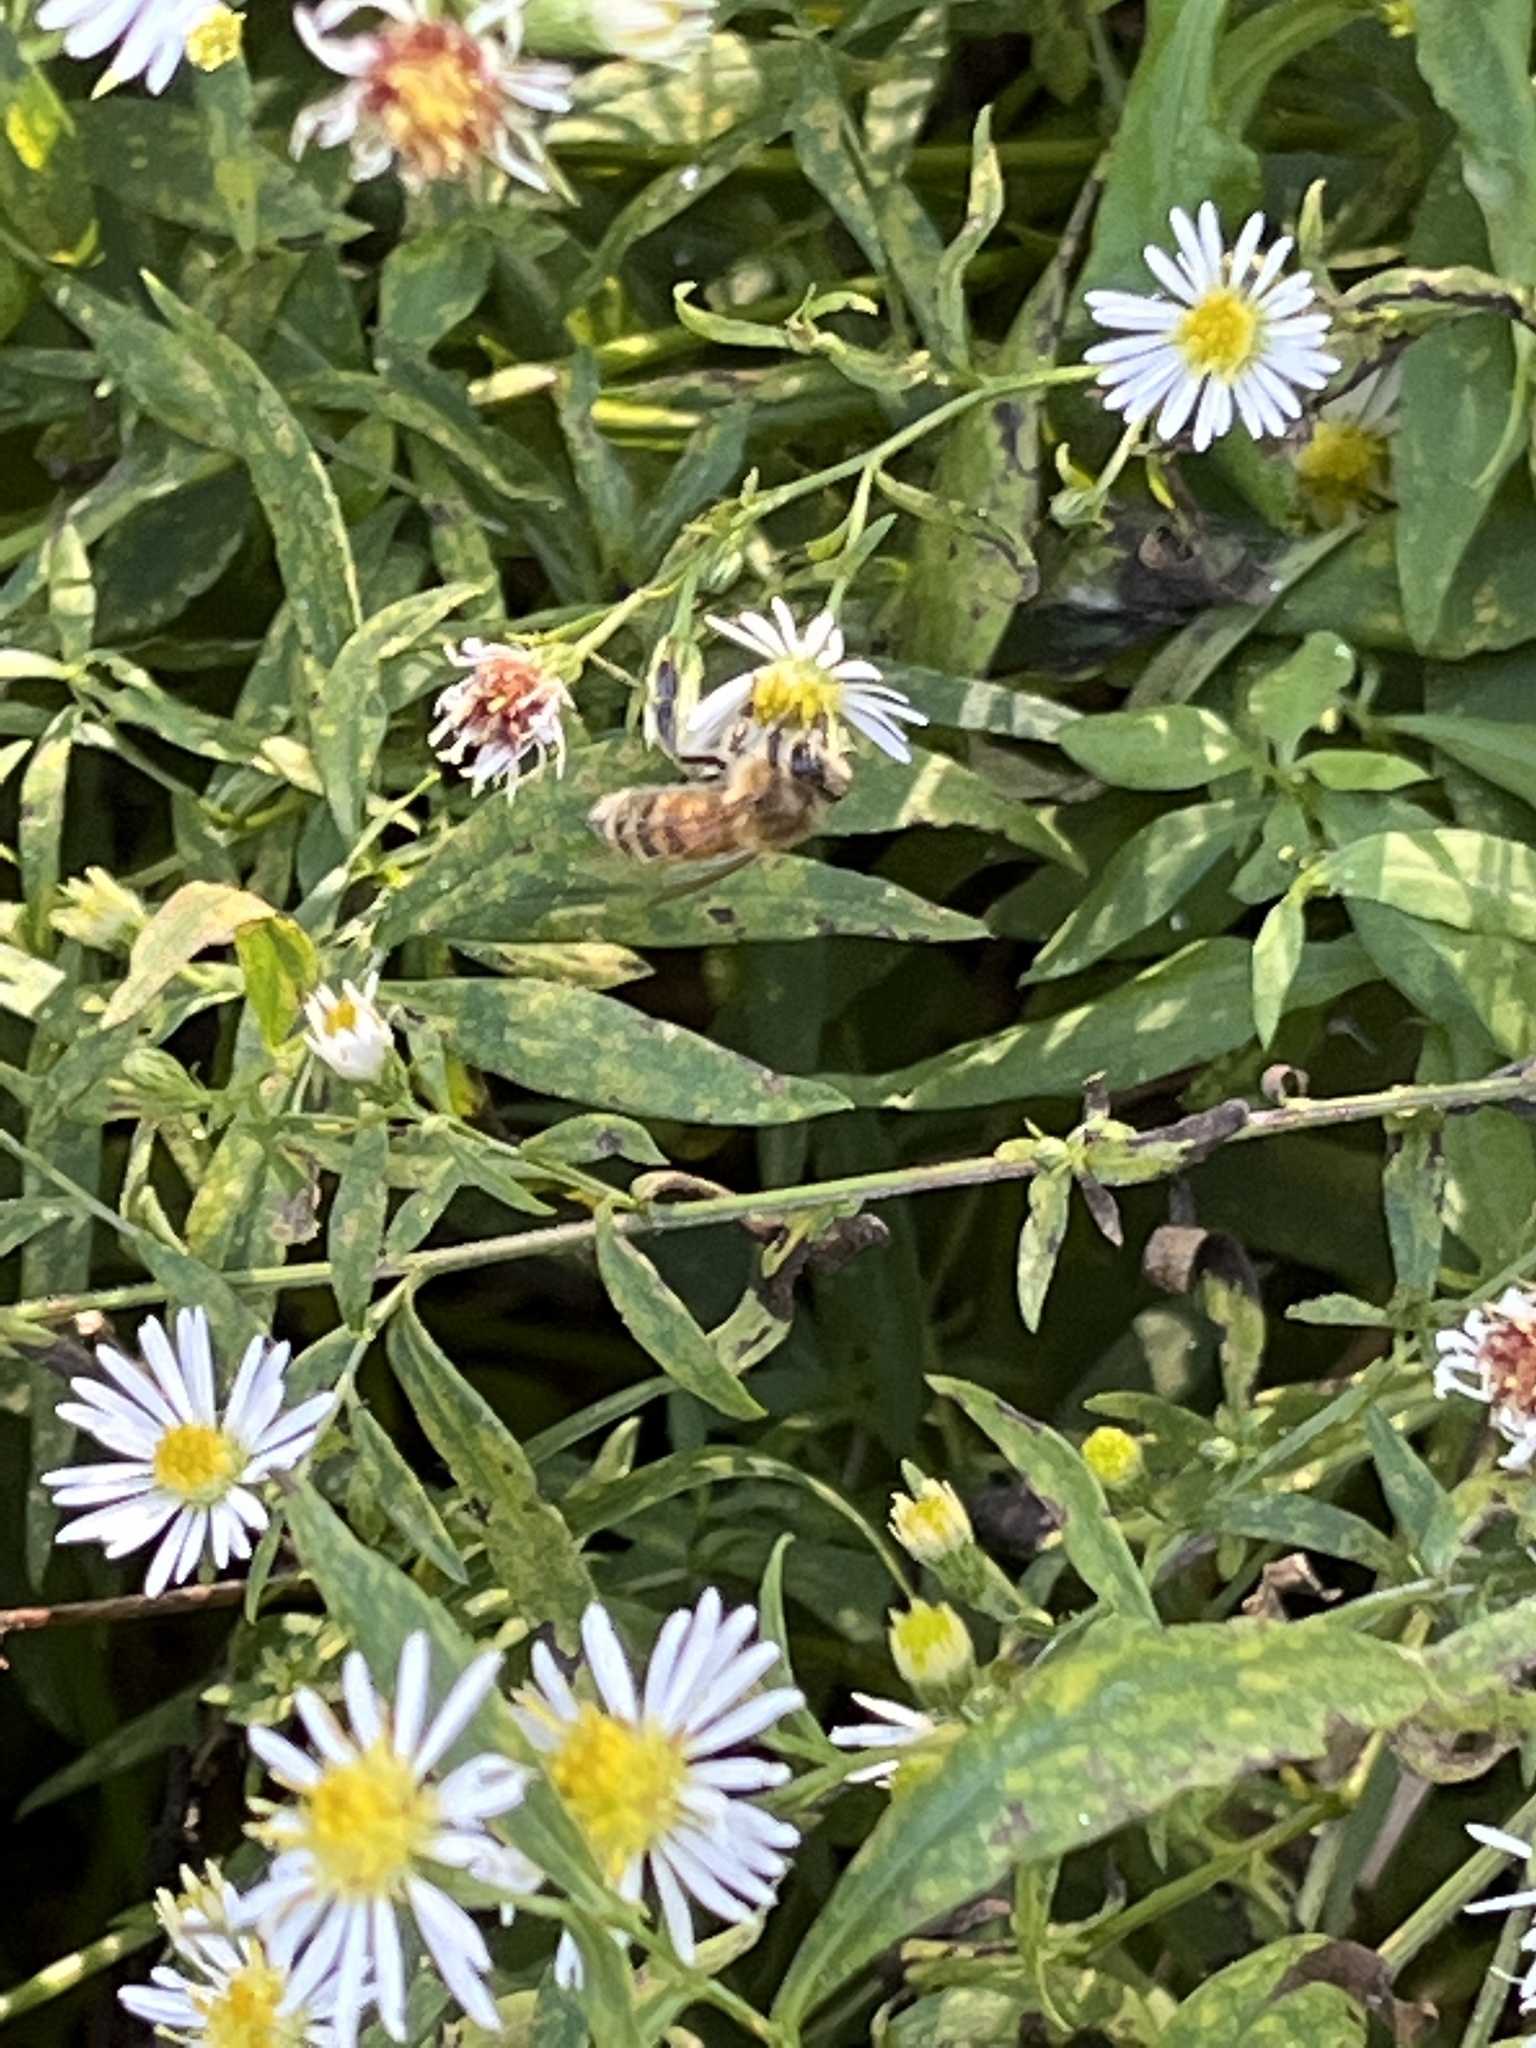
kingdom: Animalia
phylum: Arthropoda
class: Insecta
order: Hymenoptera
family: Apidae
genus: Apis
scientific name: Apis mellifera
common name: Honey bee
